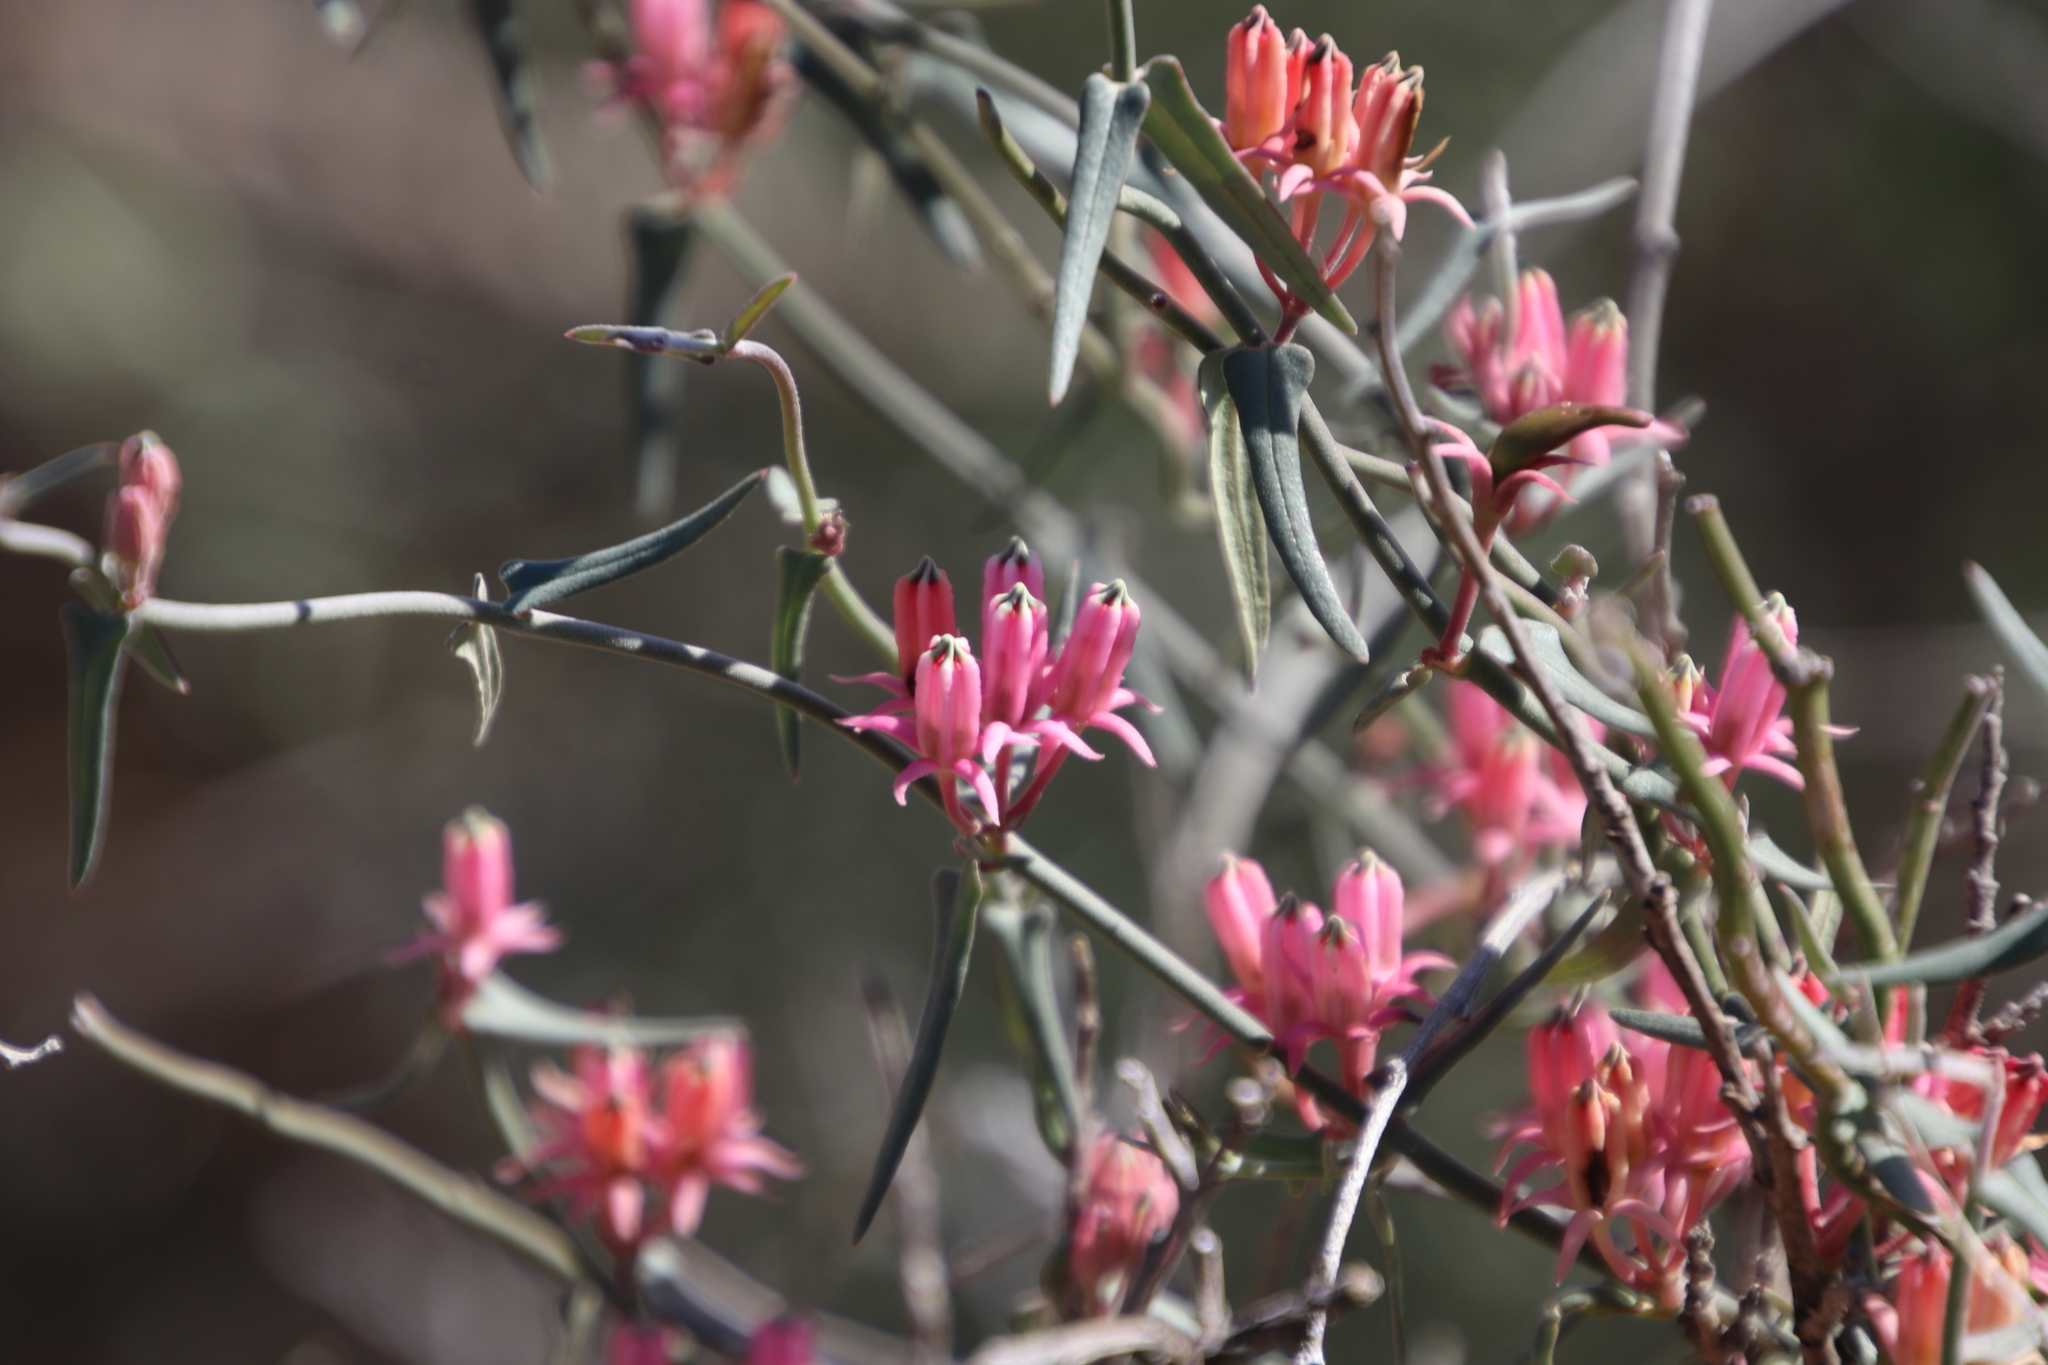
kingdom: Plantae
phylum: Tracheophyta
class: Magnoliopsida
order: Gentianales
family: Apocynaceae
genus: Microloma
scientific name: Microloma sagittatum
